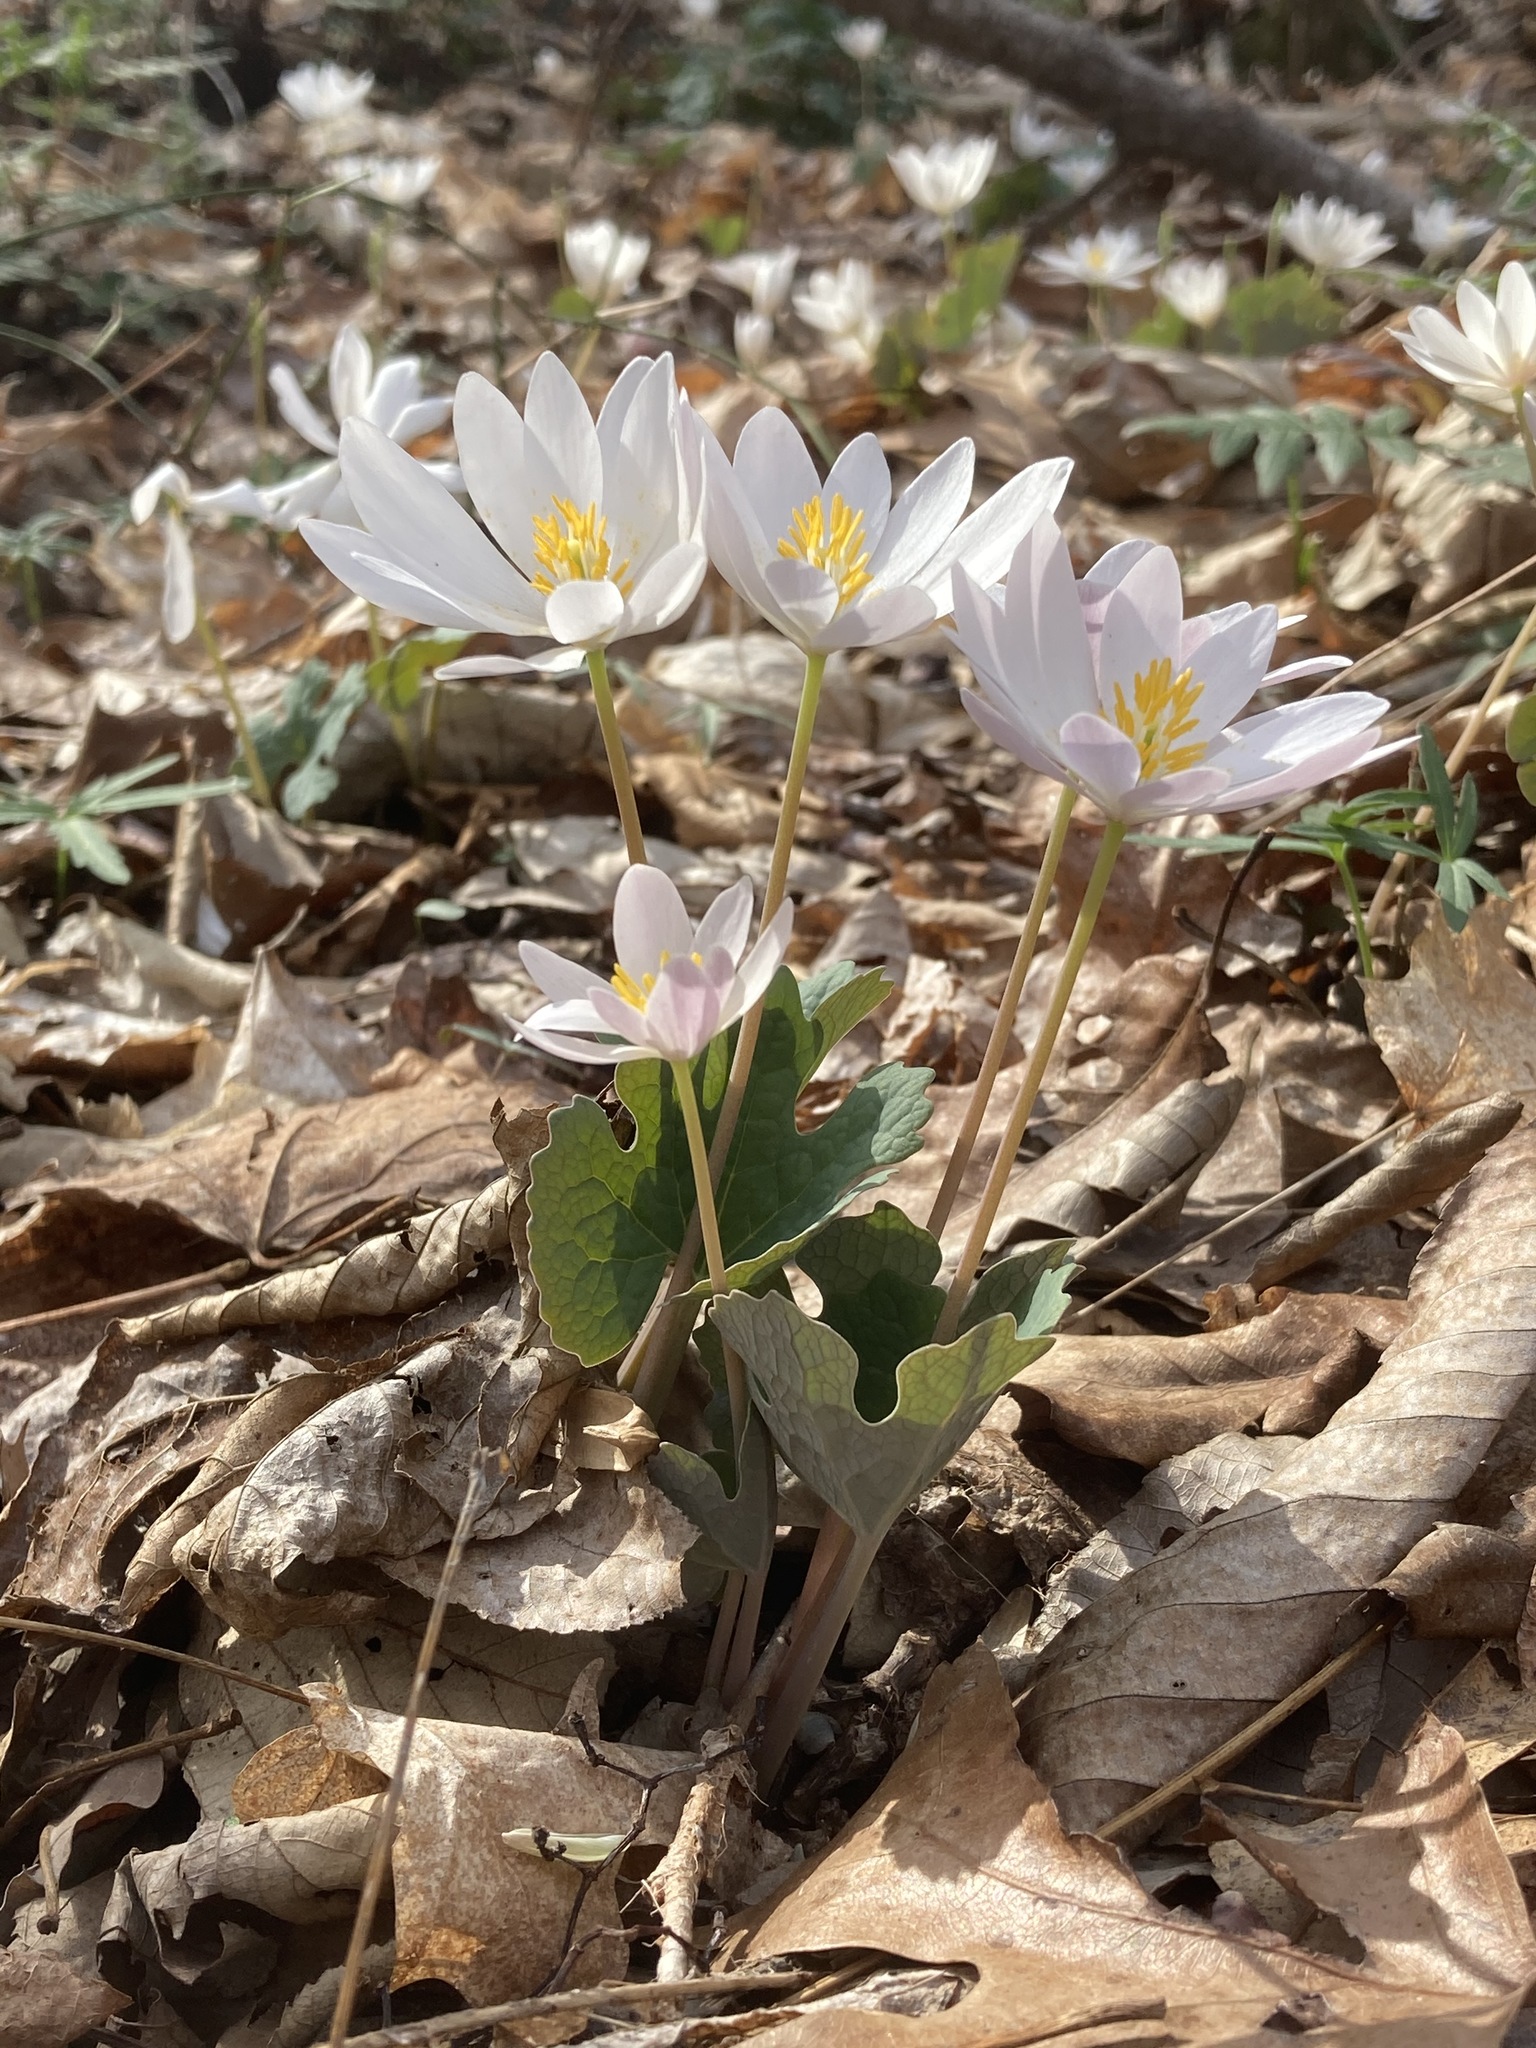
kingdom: Plantae
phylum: Tracheophyta
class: Magnoliopsida
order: Ranunculales
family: Papaveraceae
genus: Sanguinaria
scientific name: Sanguinaria canadensis
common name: Bloodroot
